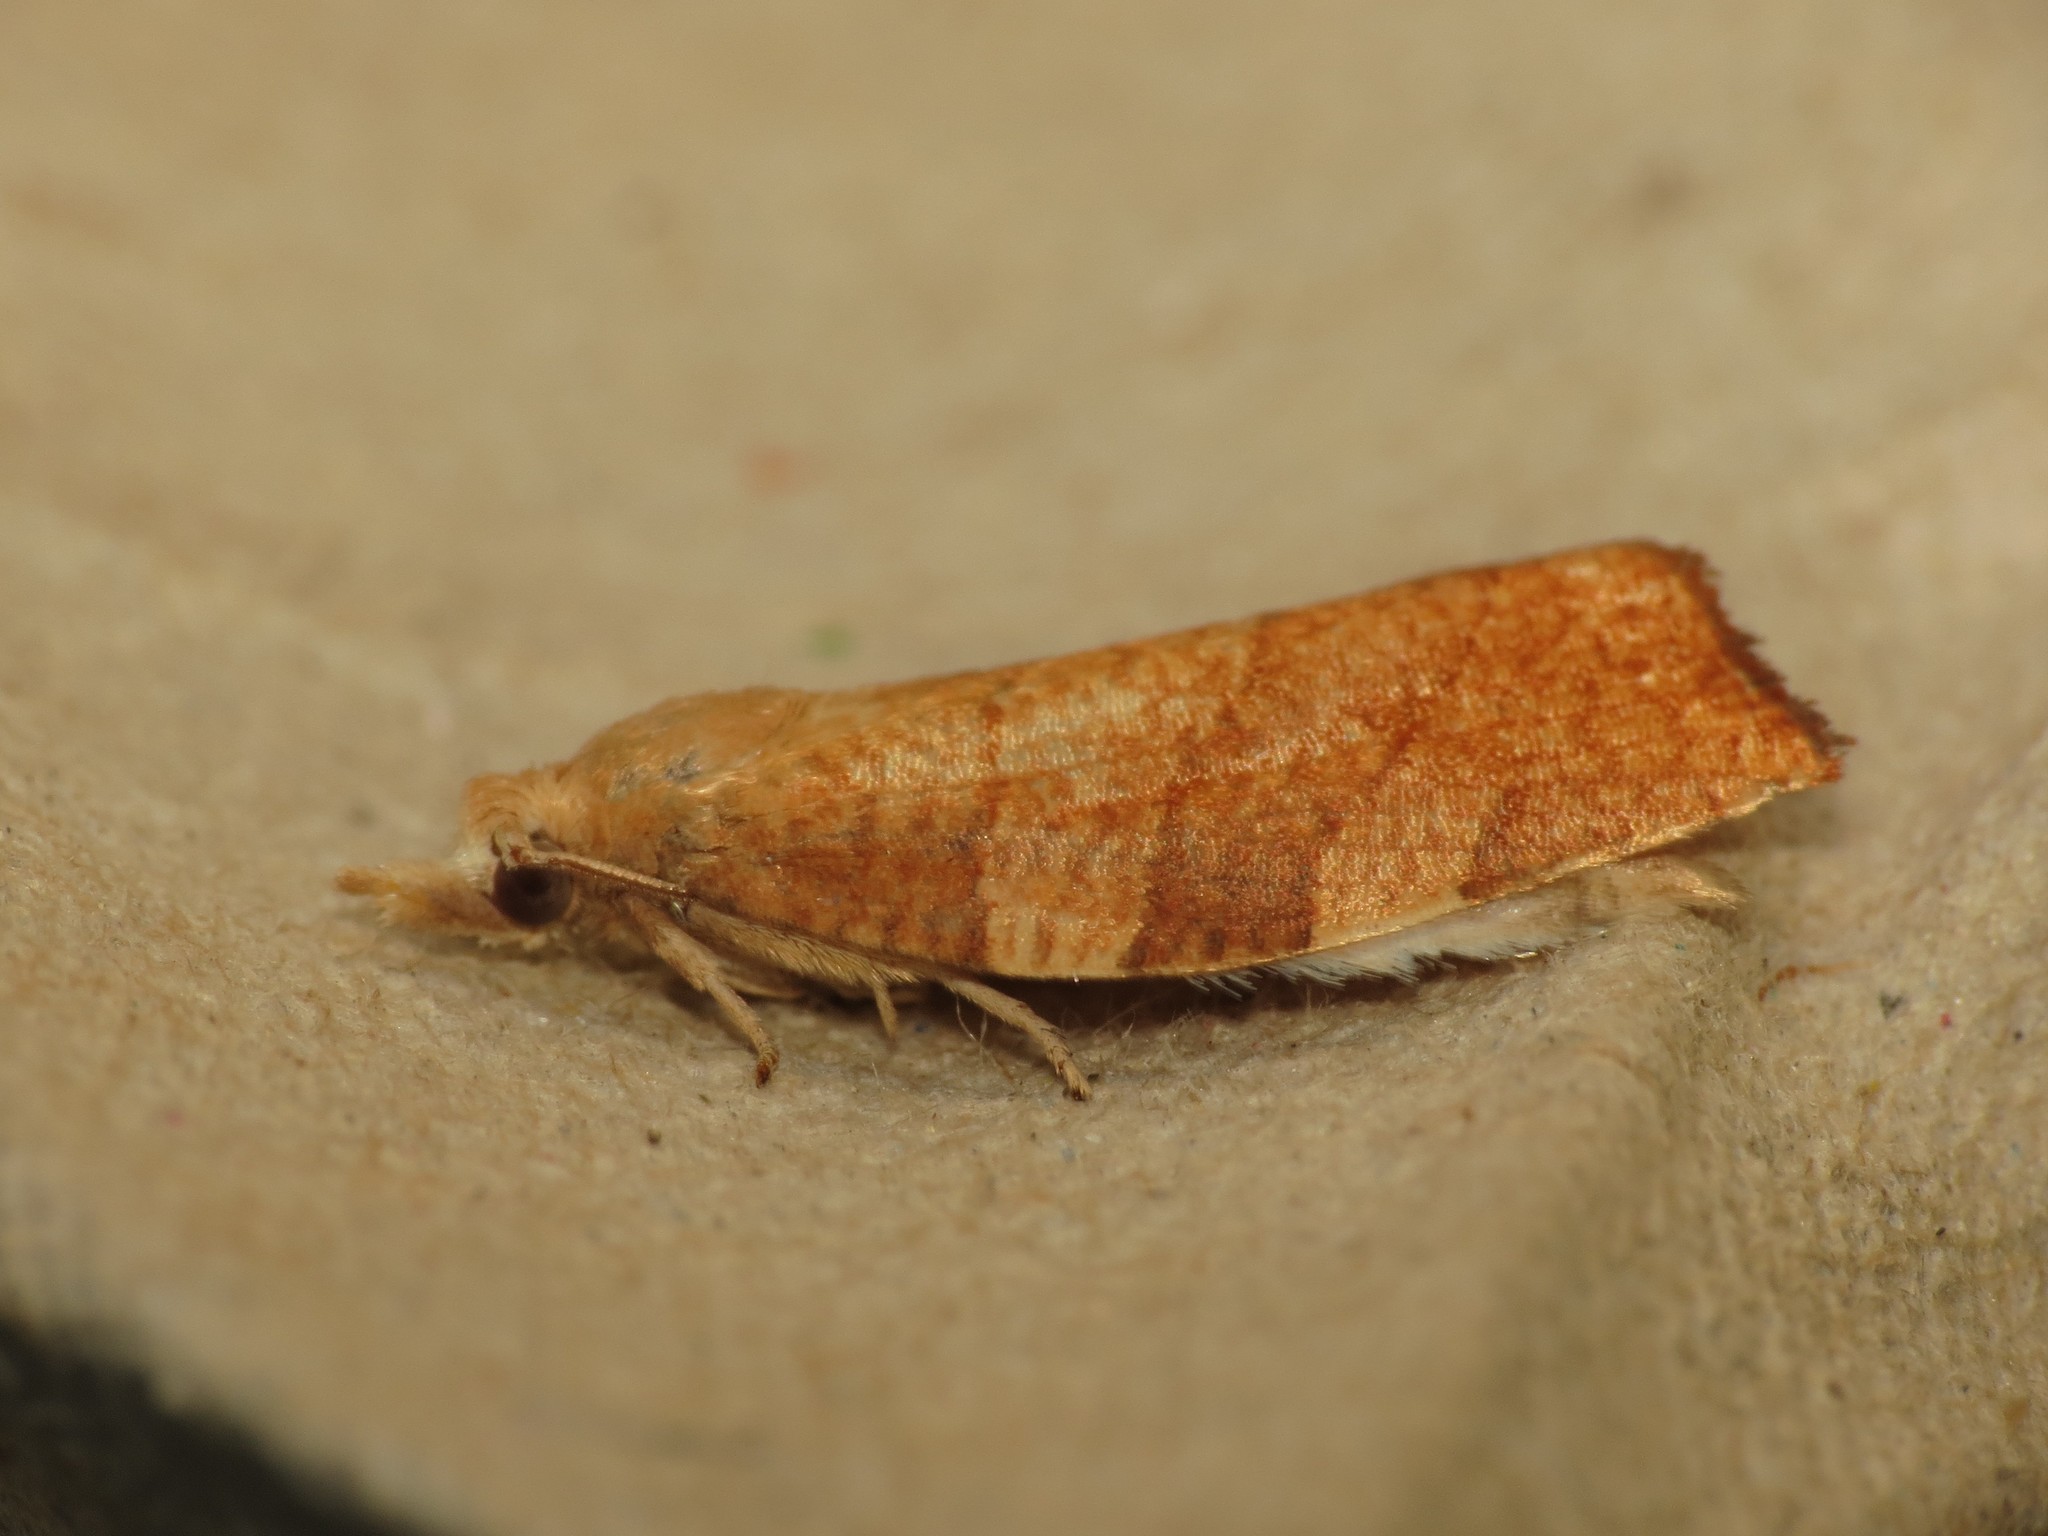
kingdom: Animalia
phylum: Arthropoda
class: Insecta
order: Lepidoptera
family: Tortricidae
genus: Pandemis
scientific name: Pandemis cinnamomeana
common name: White-faced twist
